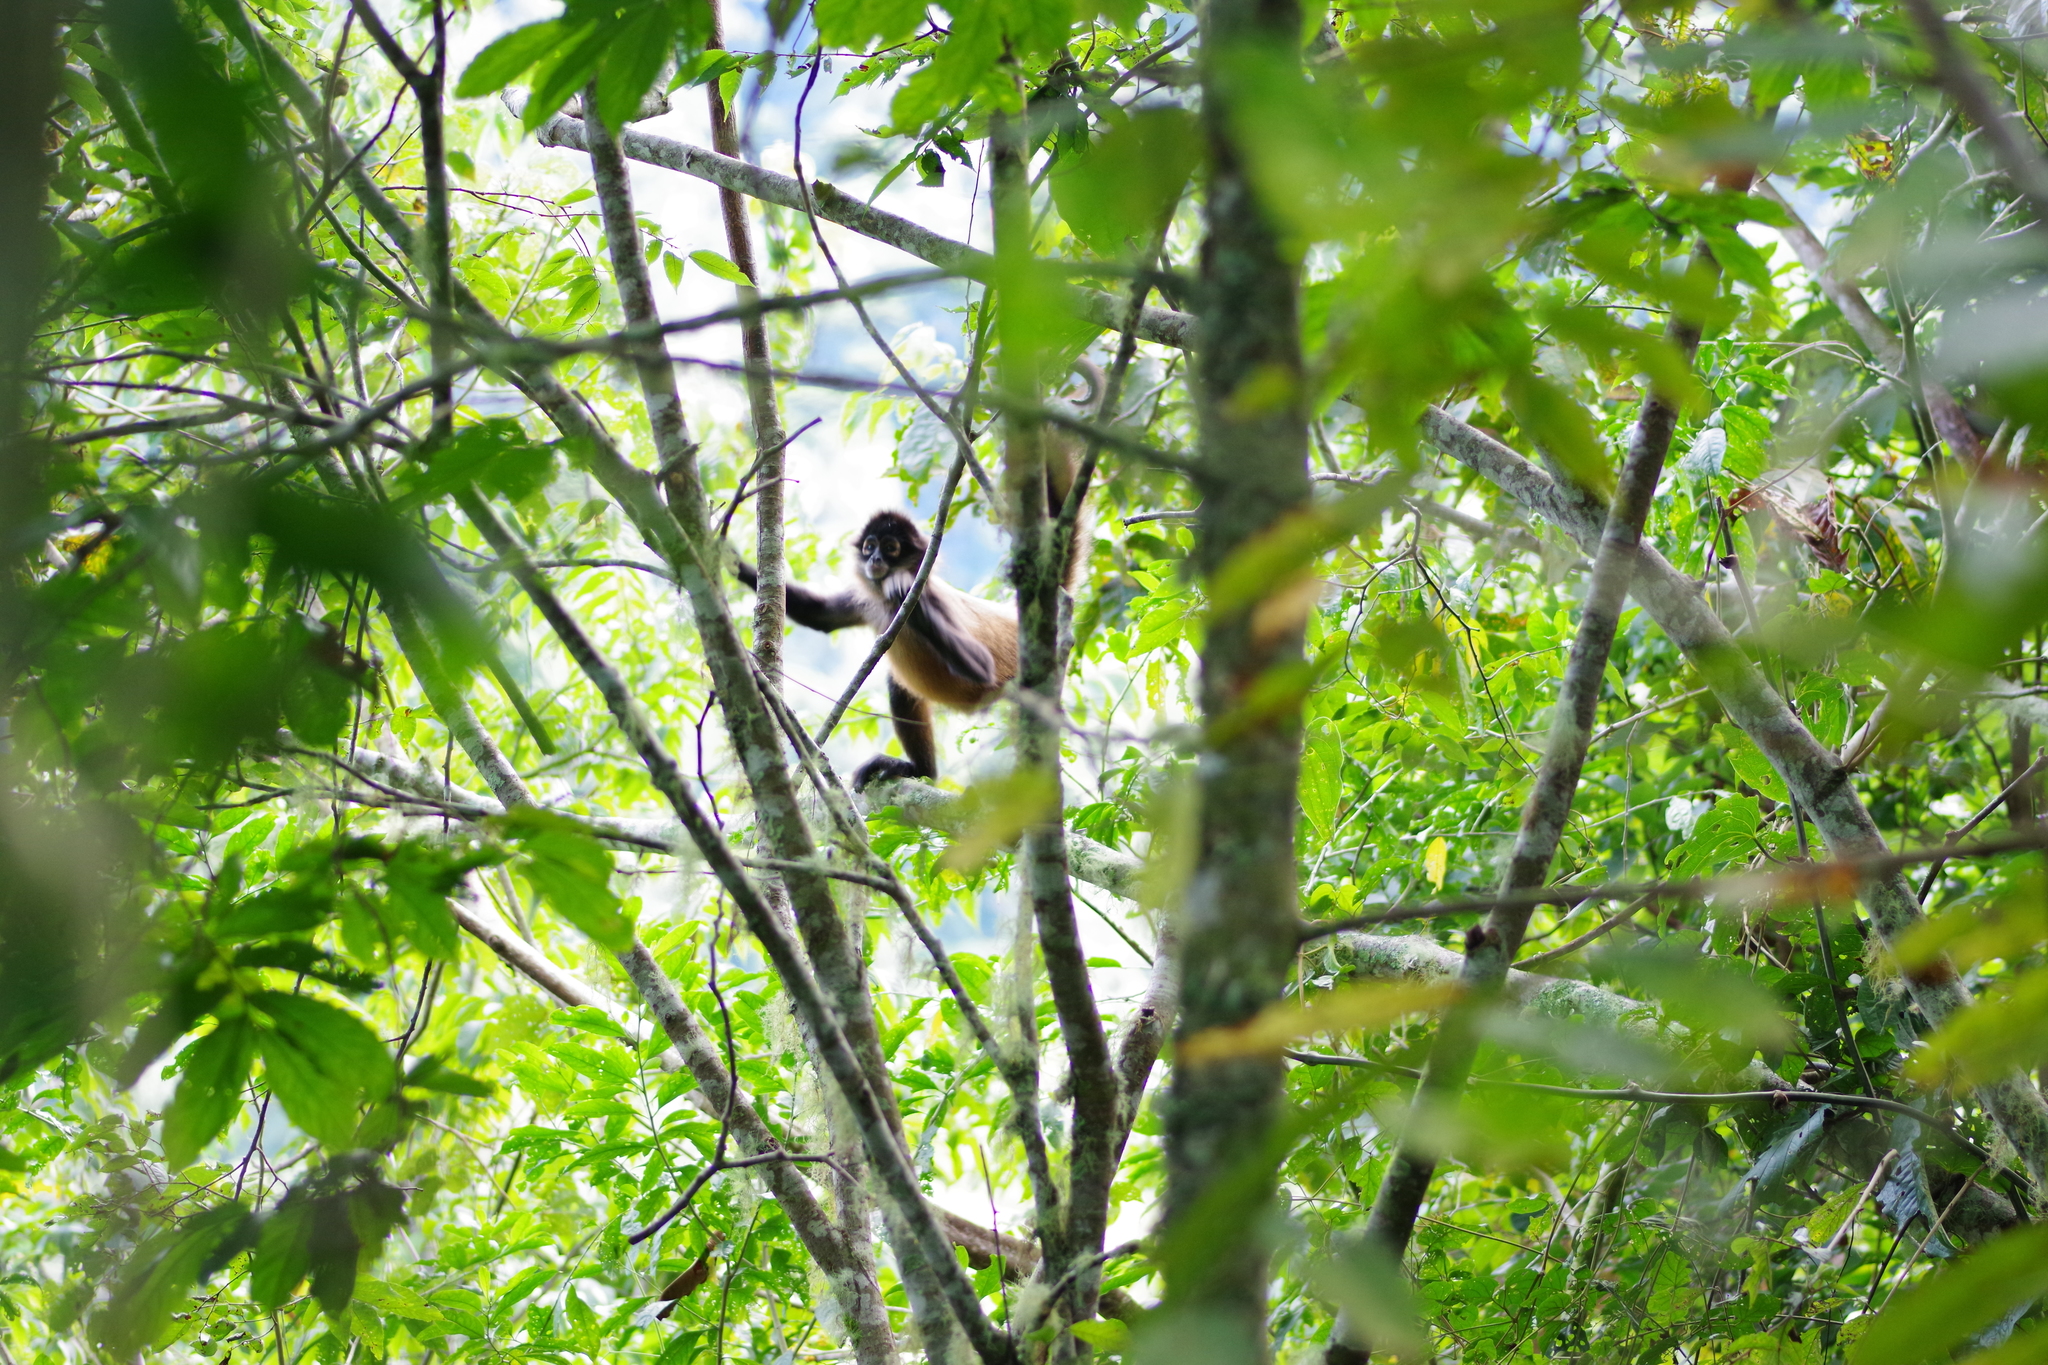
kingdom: Animalia
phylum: Chordata
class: Mammalia
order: Primates
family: Atelidae
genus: Ateles
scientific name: Ateles geoffroyi
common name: Black-handed spider monkey
